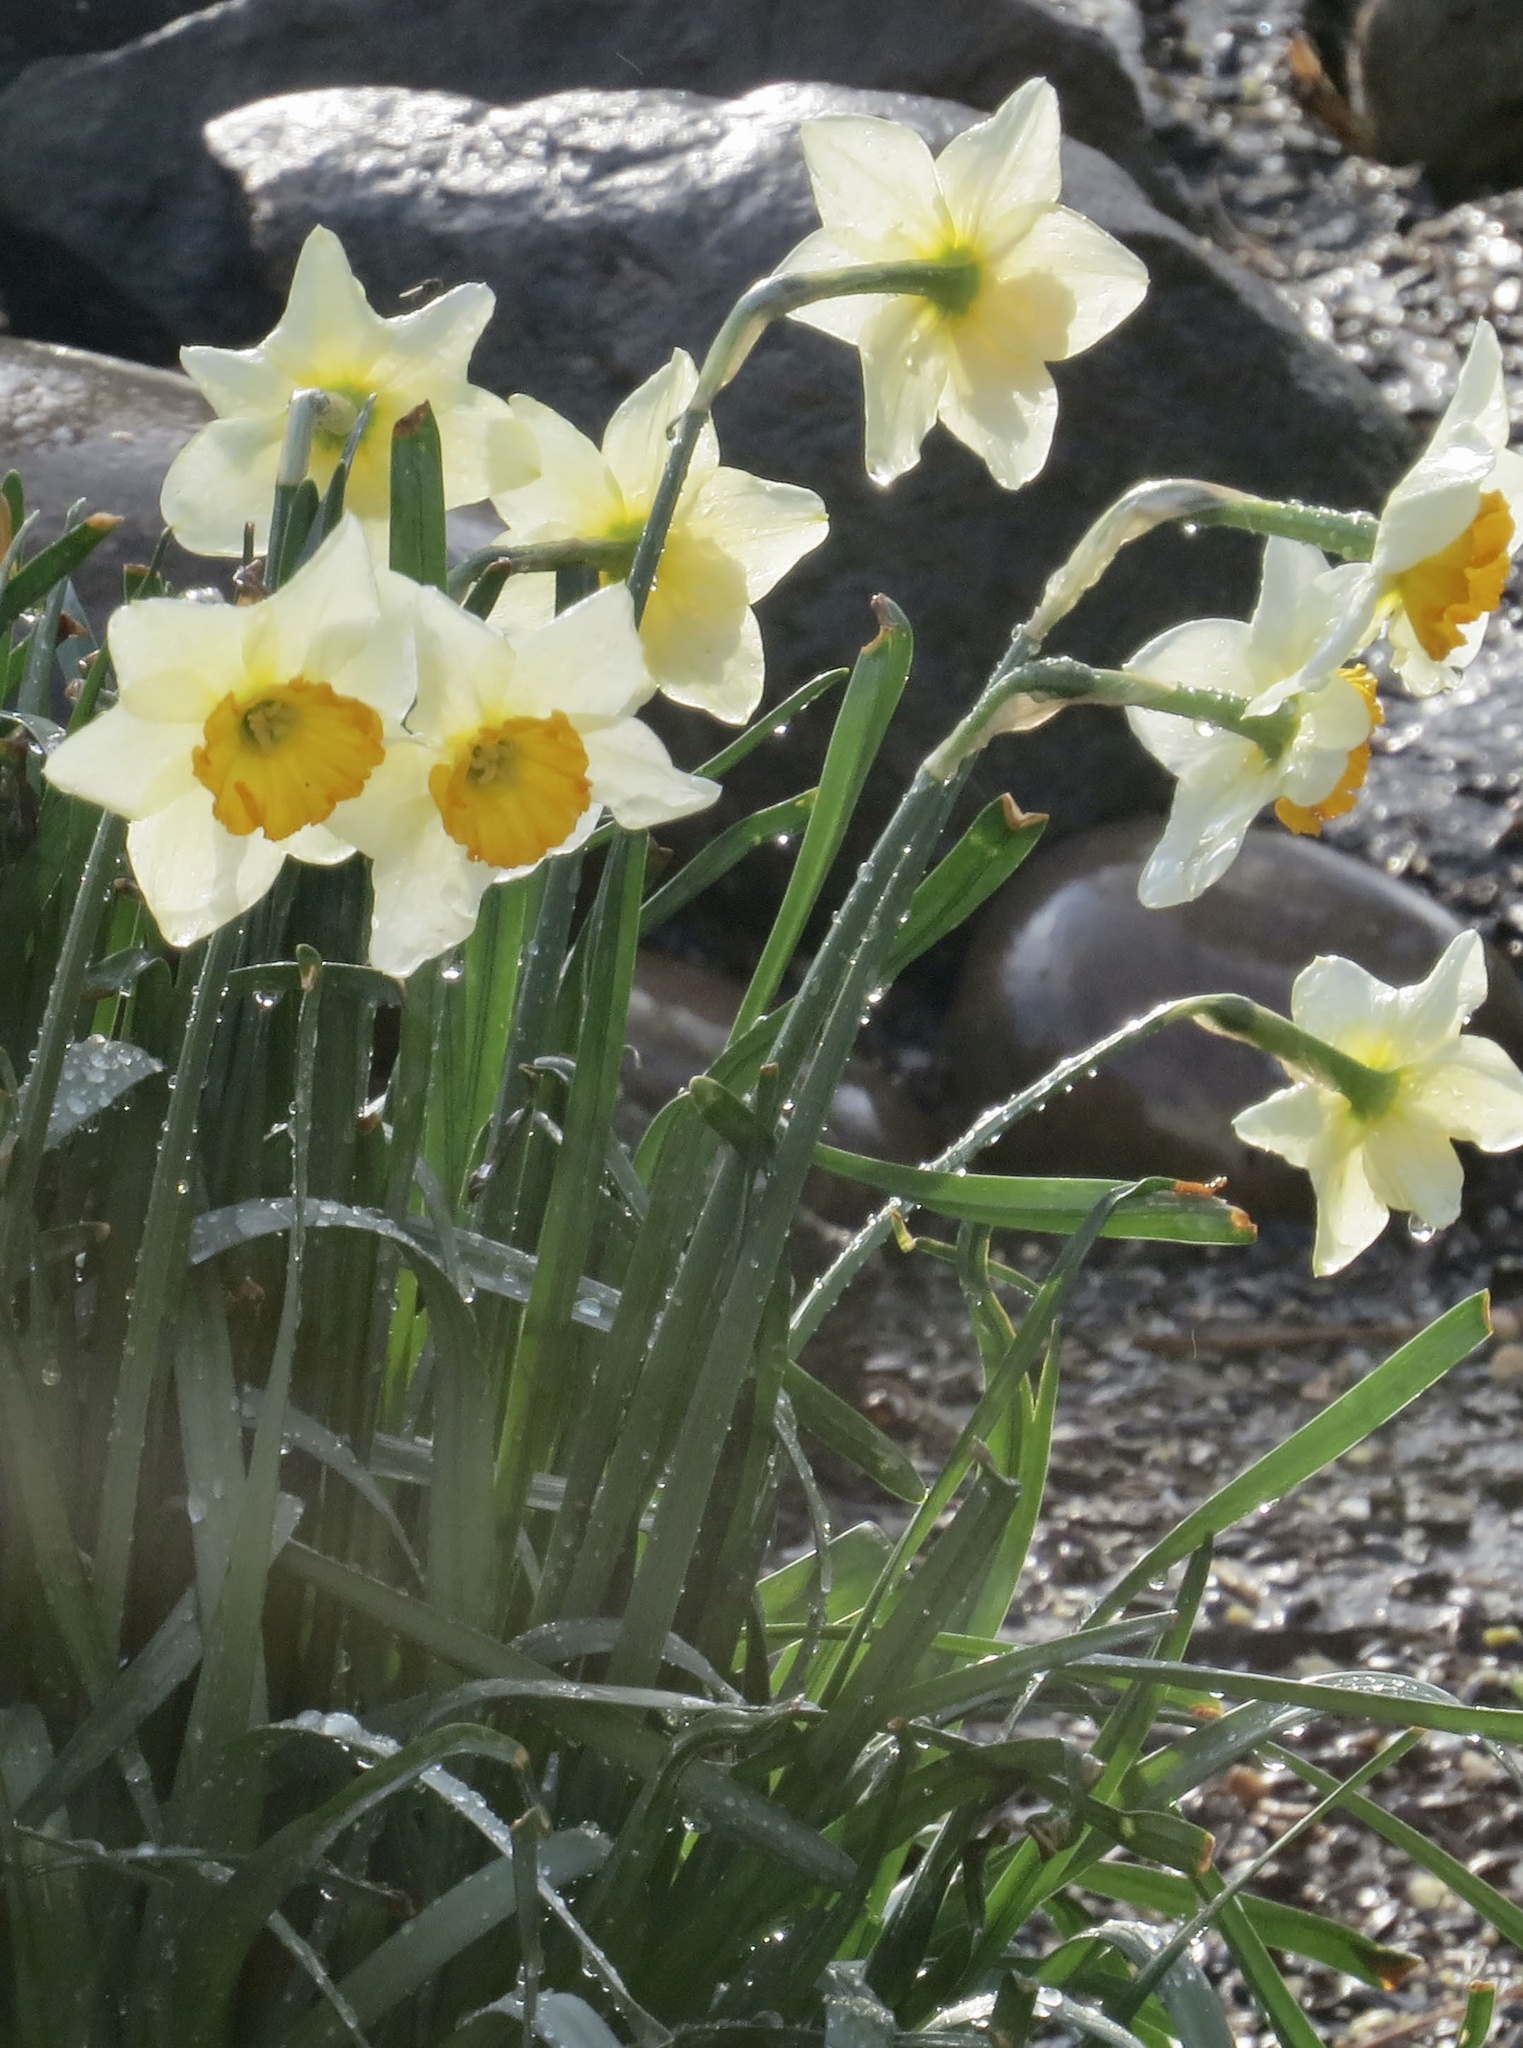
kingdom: Plantae
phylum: Tracheophyta
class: Liliopsida
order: Asparagales
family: Amaryllidaceae
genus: Narcissus
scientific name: Narcissus poeticus
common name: Pheasant's-eye daffodil
